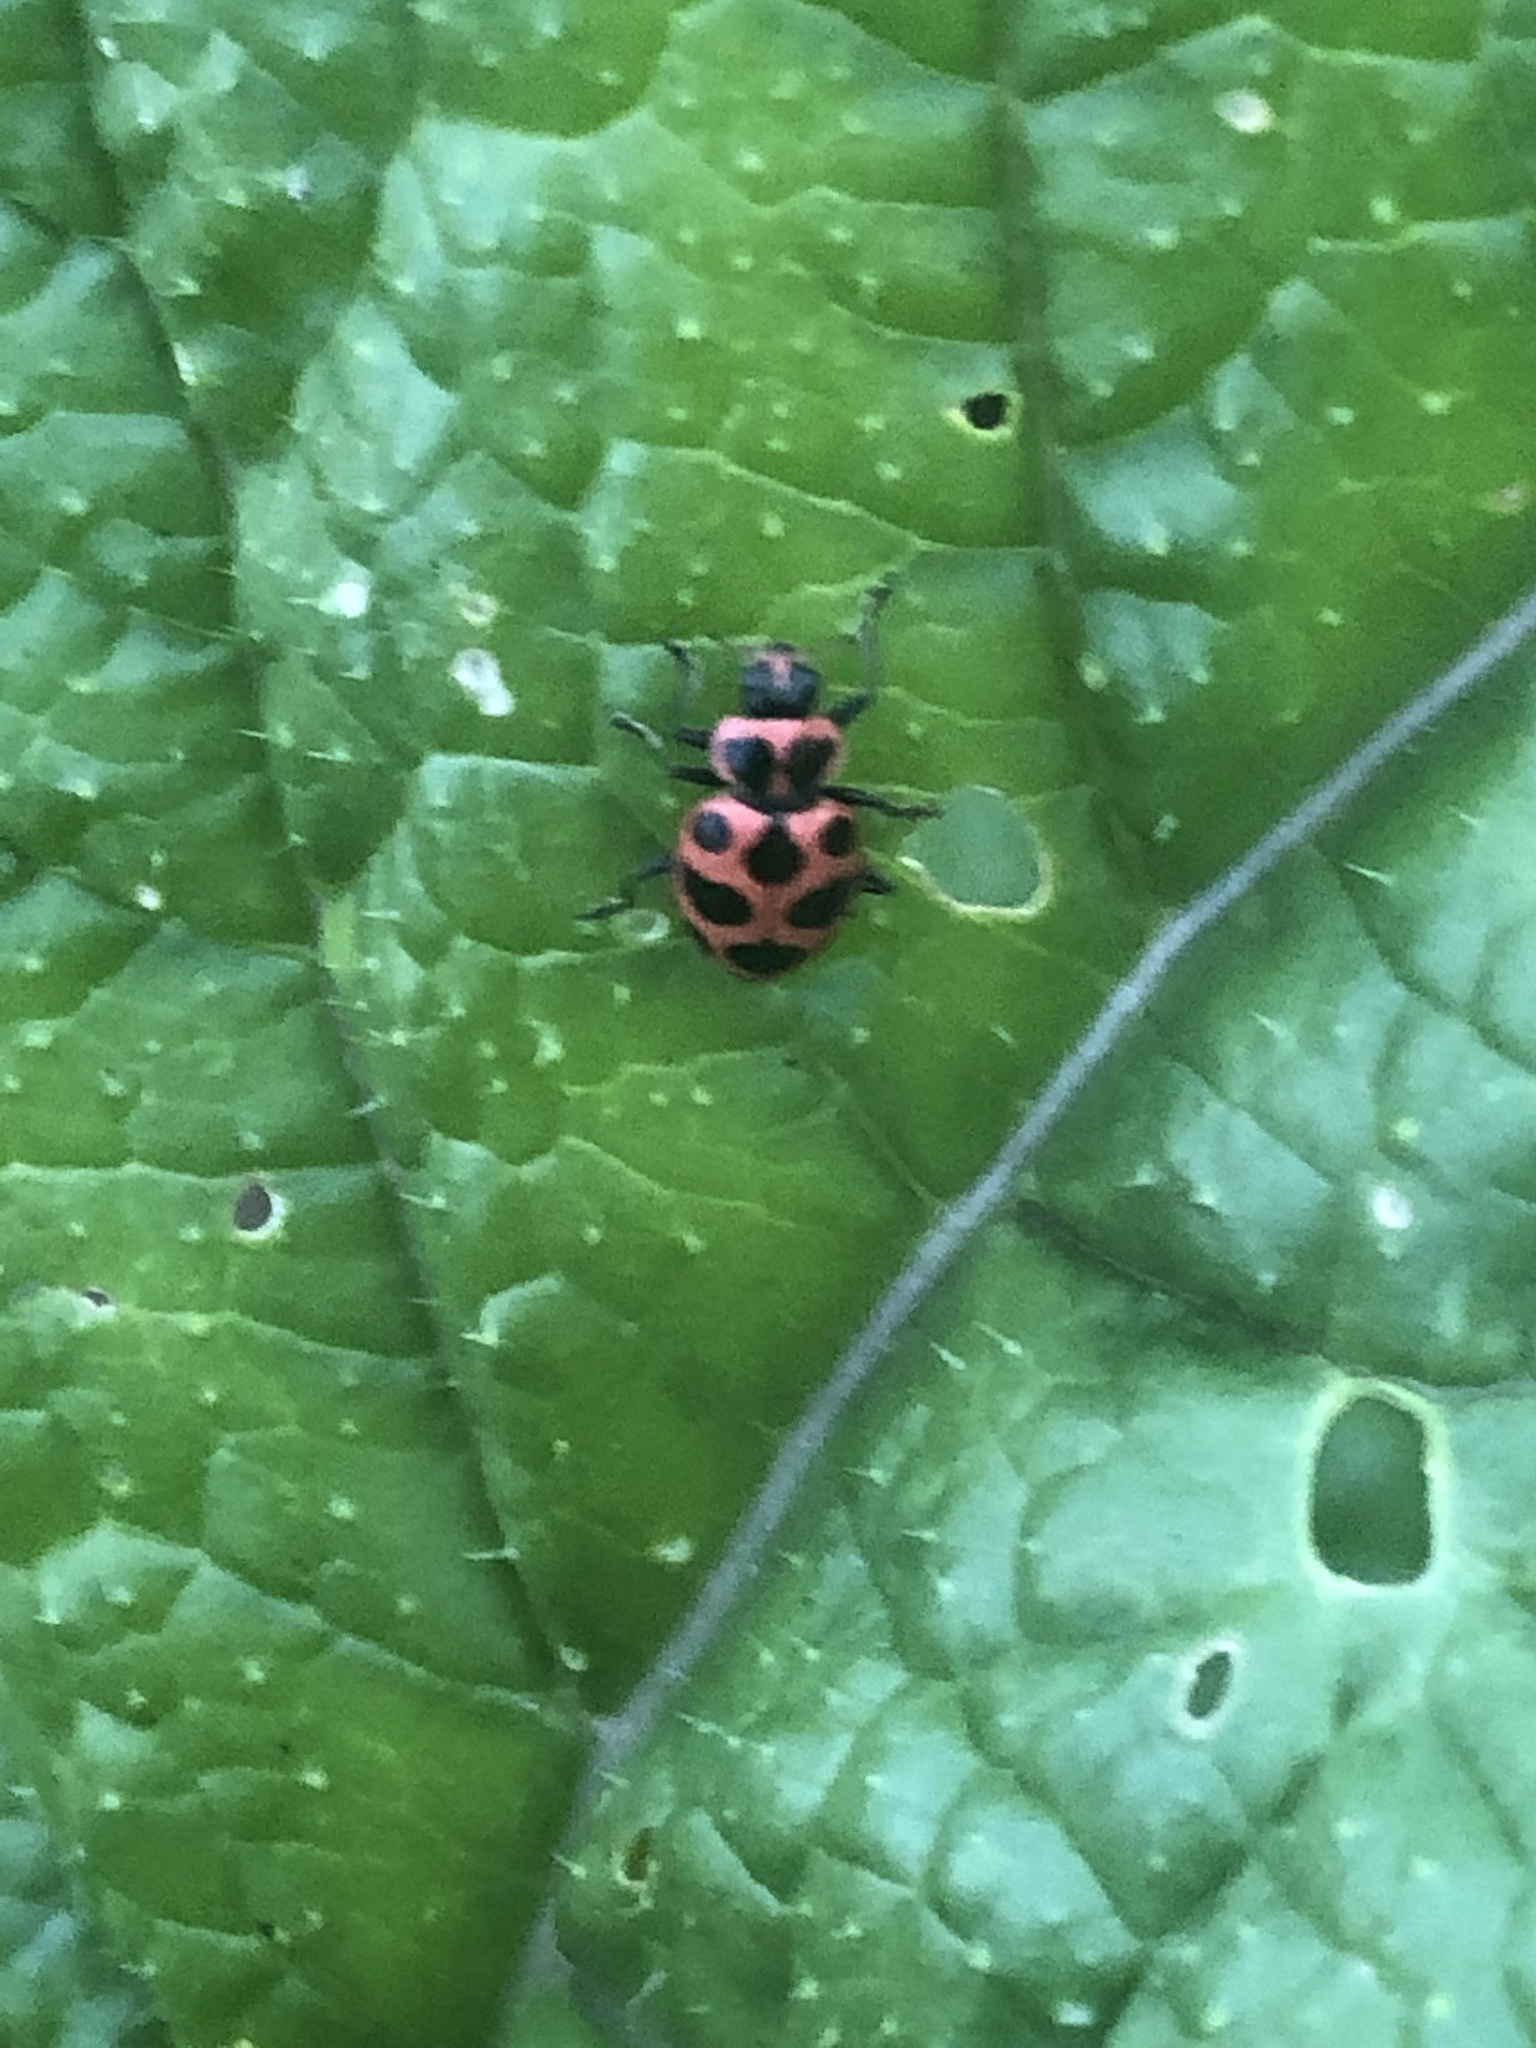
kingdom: Animalia
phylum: Arthropoda
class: Insecta
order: Coleoptera
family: Coccinellidae
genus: Coleomegilla
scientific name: Coleomegilla maculata
